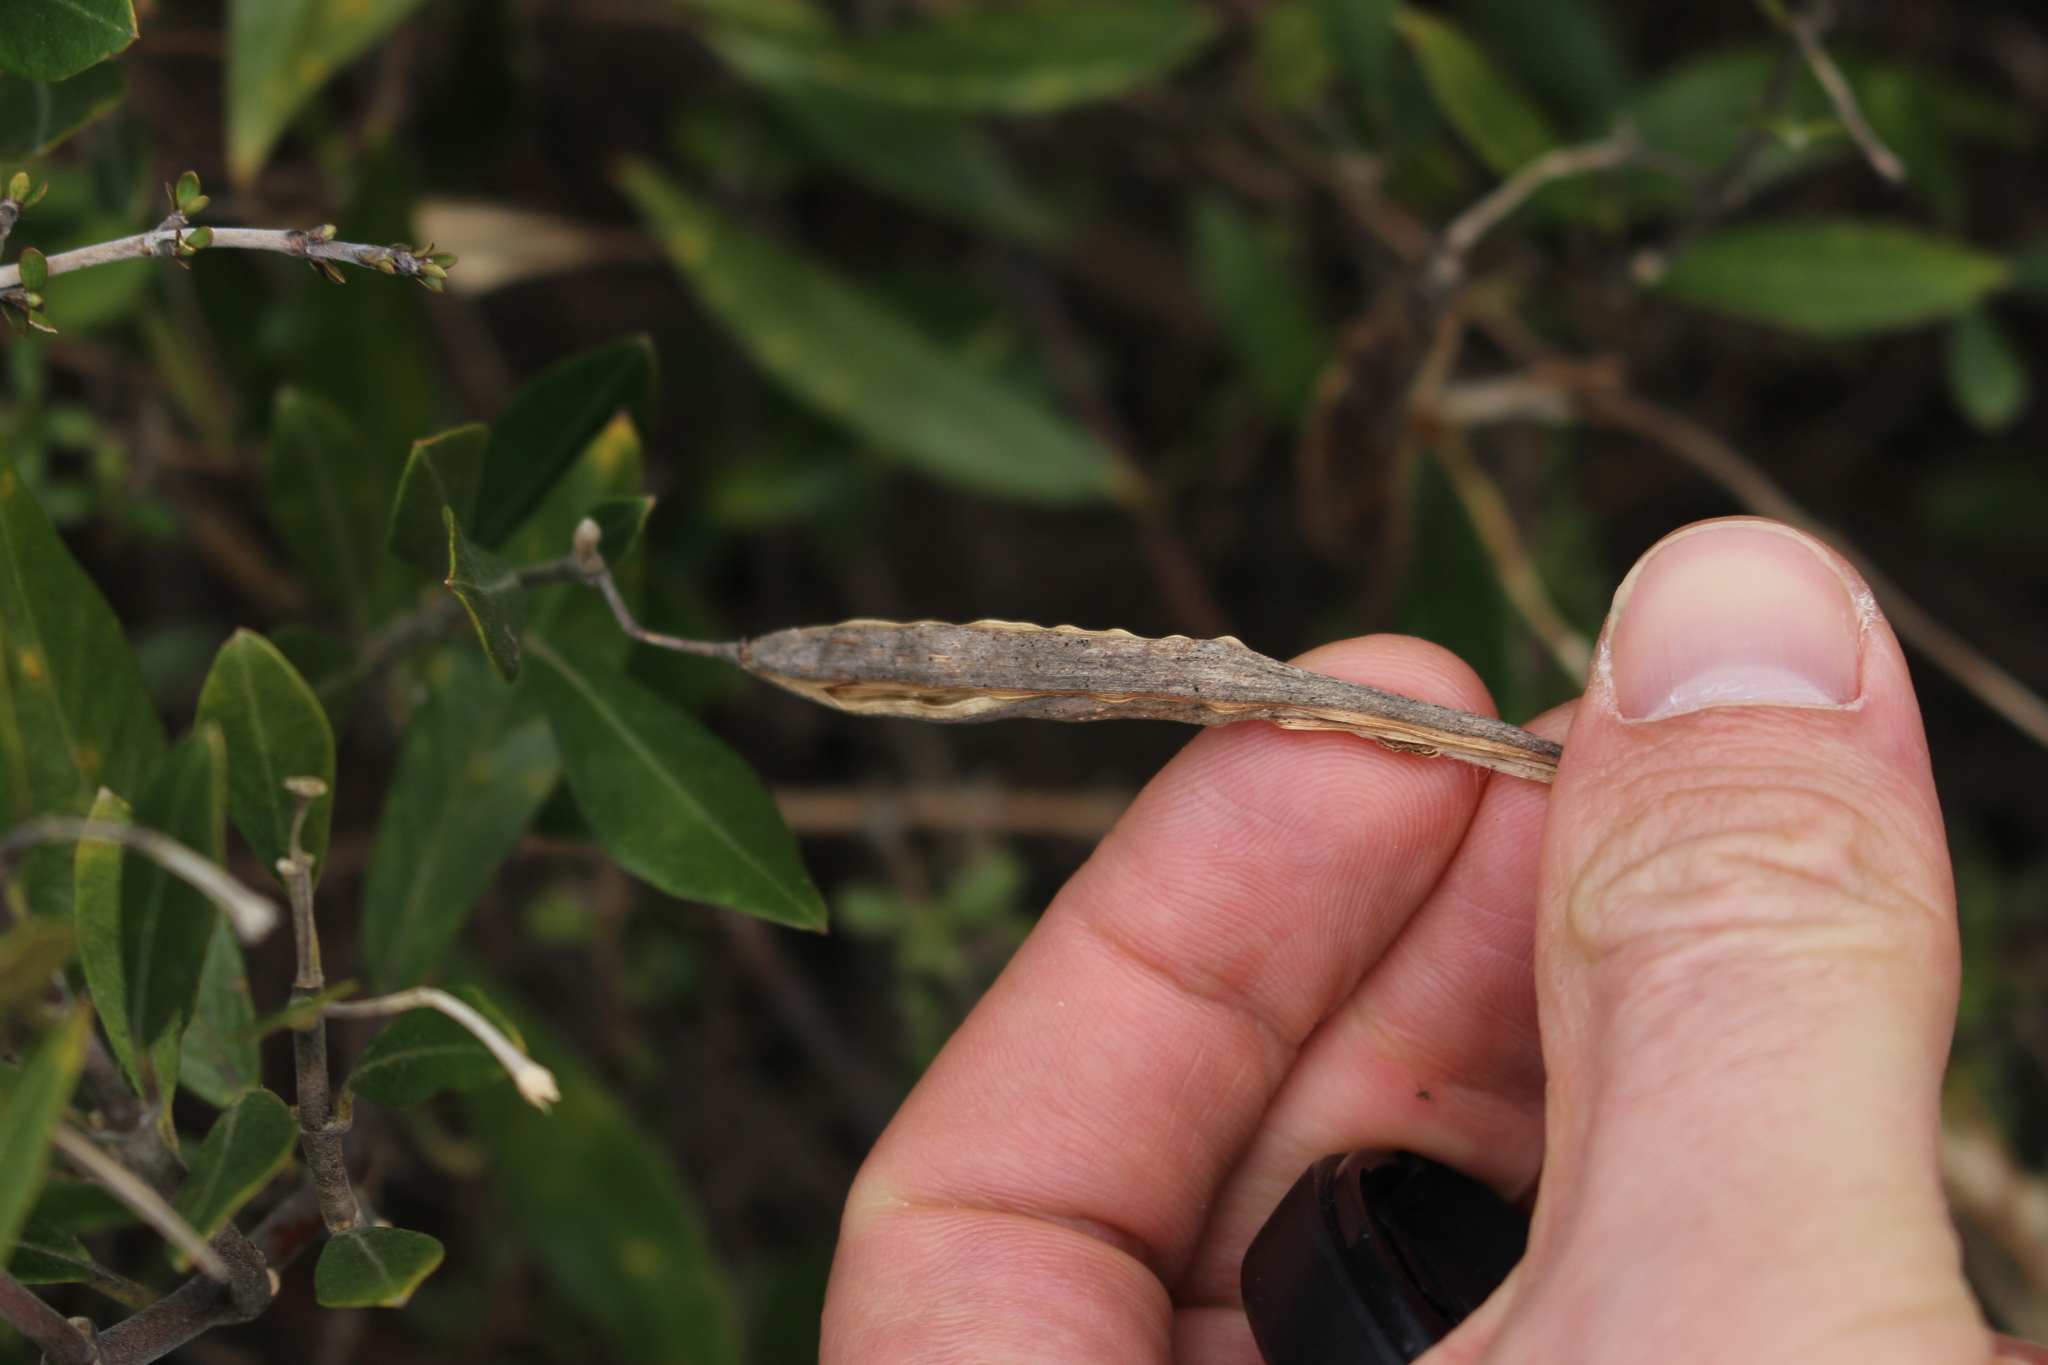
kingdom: Plantae
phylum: Tracheophyta
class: Magnoliopsida
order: Gentianales
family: Apocynaceae
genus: Parsonsia
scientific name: Parsonsia heterophylla
